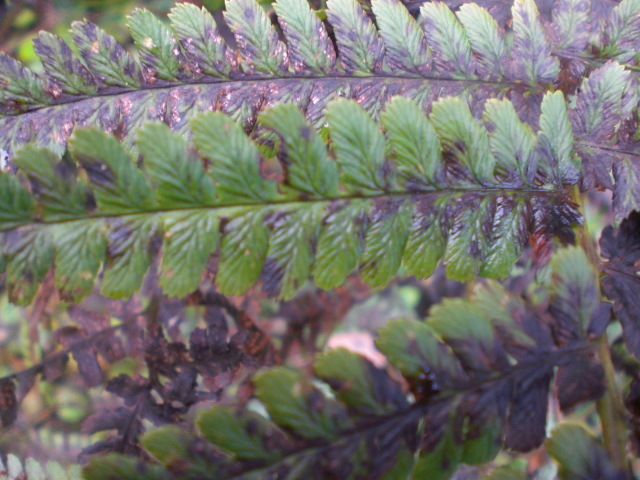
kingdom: Plantae
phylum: Tracheophyta
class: Polypodiopsida
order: Polypodiales
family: Dryopteridaceae
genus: Dryopteris
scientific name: Dryopteris filix-mas
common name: Male fern
